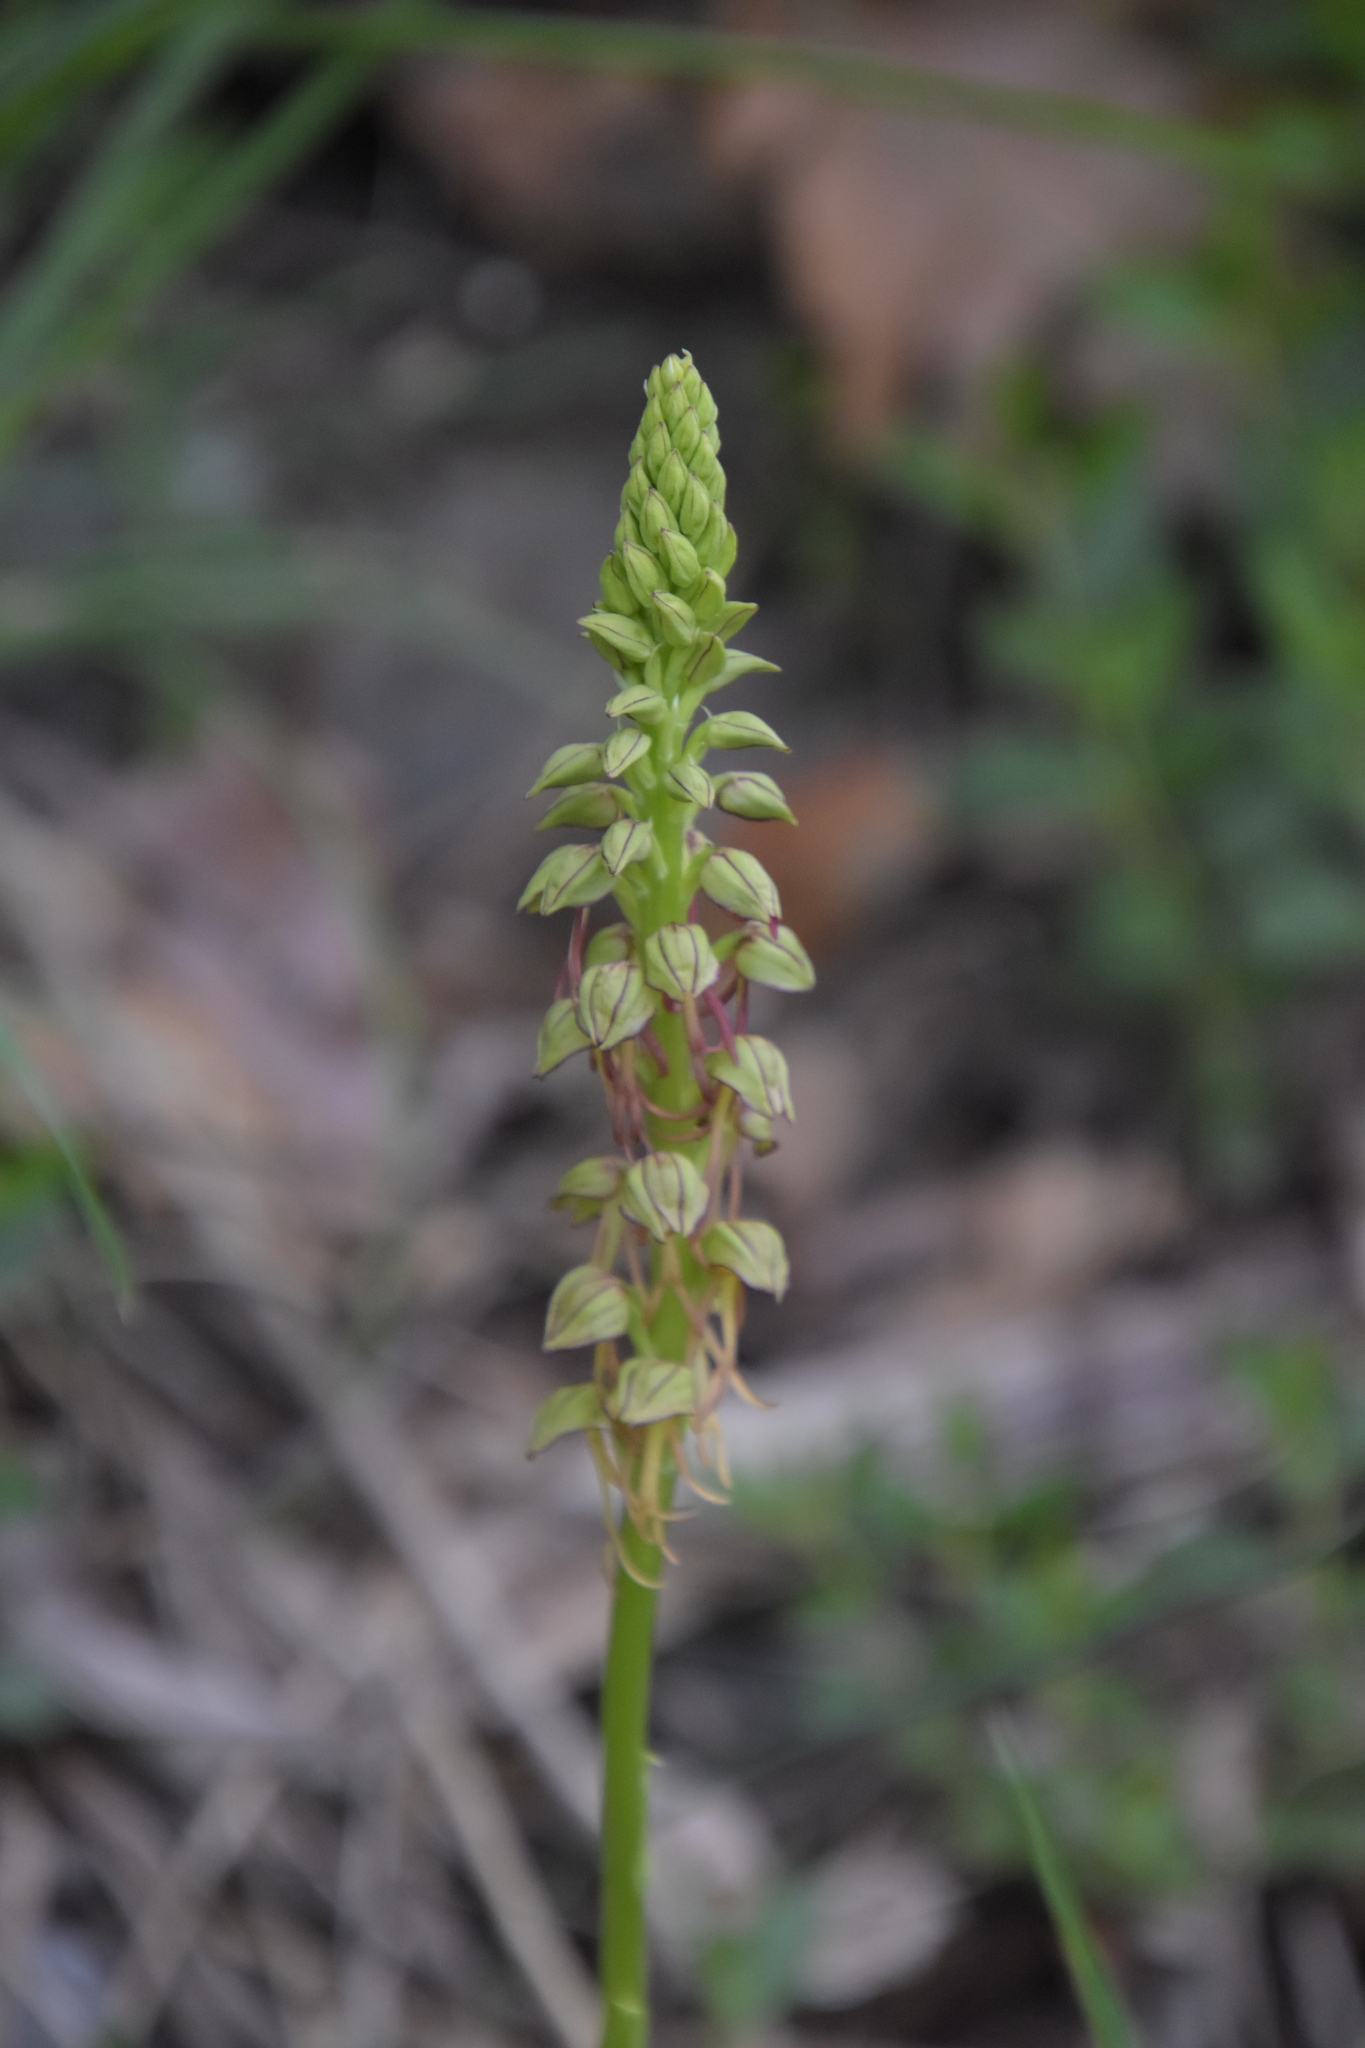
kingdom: Plantae
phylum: Tracheophyta
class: Liliopsida
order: Asparagales
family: Orchidaceae
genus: Orchis
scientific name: Orchis anthropophora
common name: Man orchid
